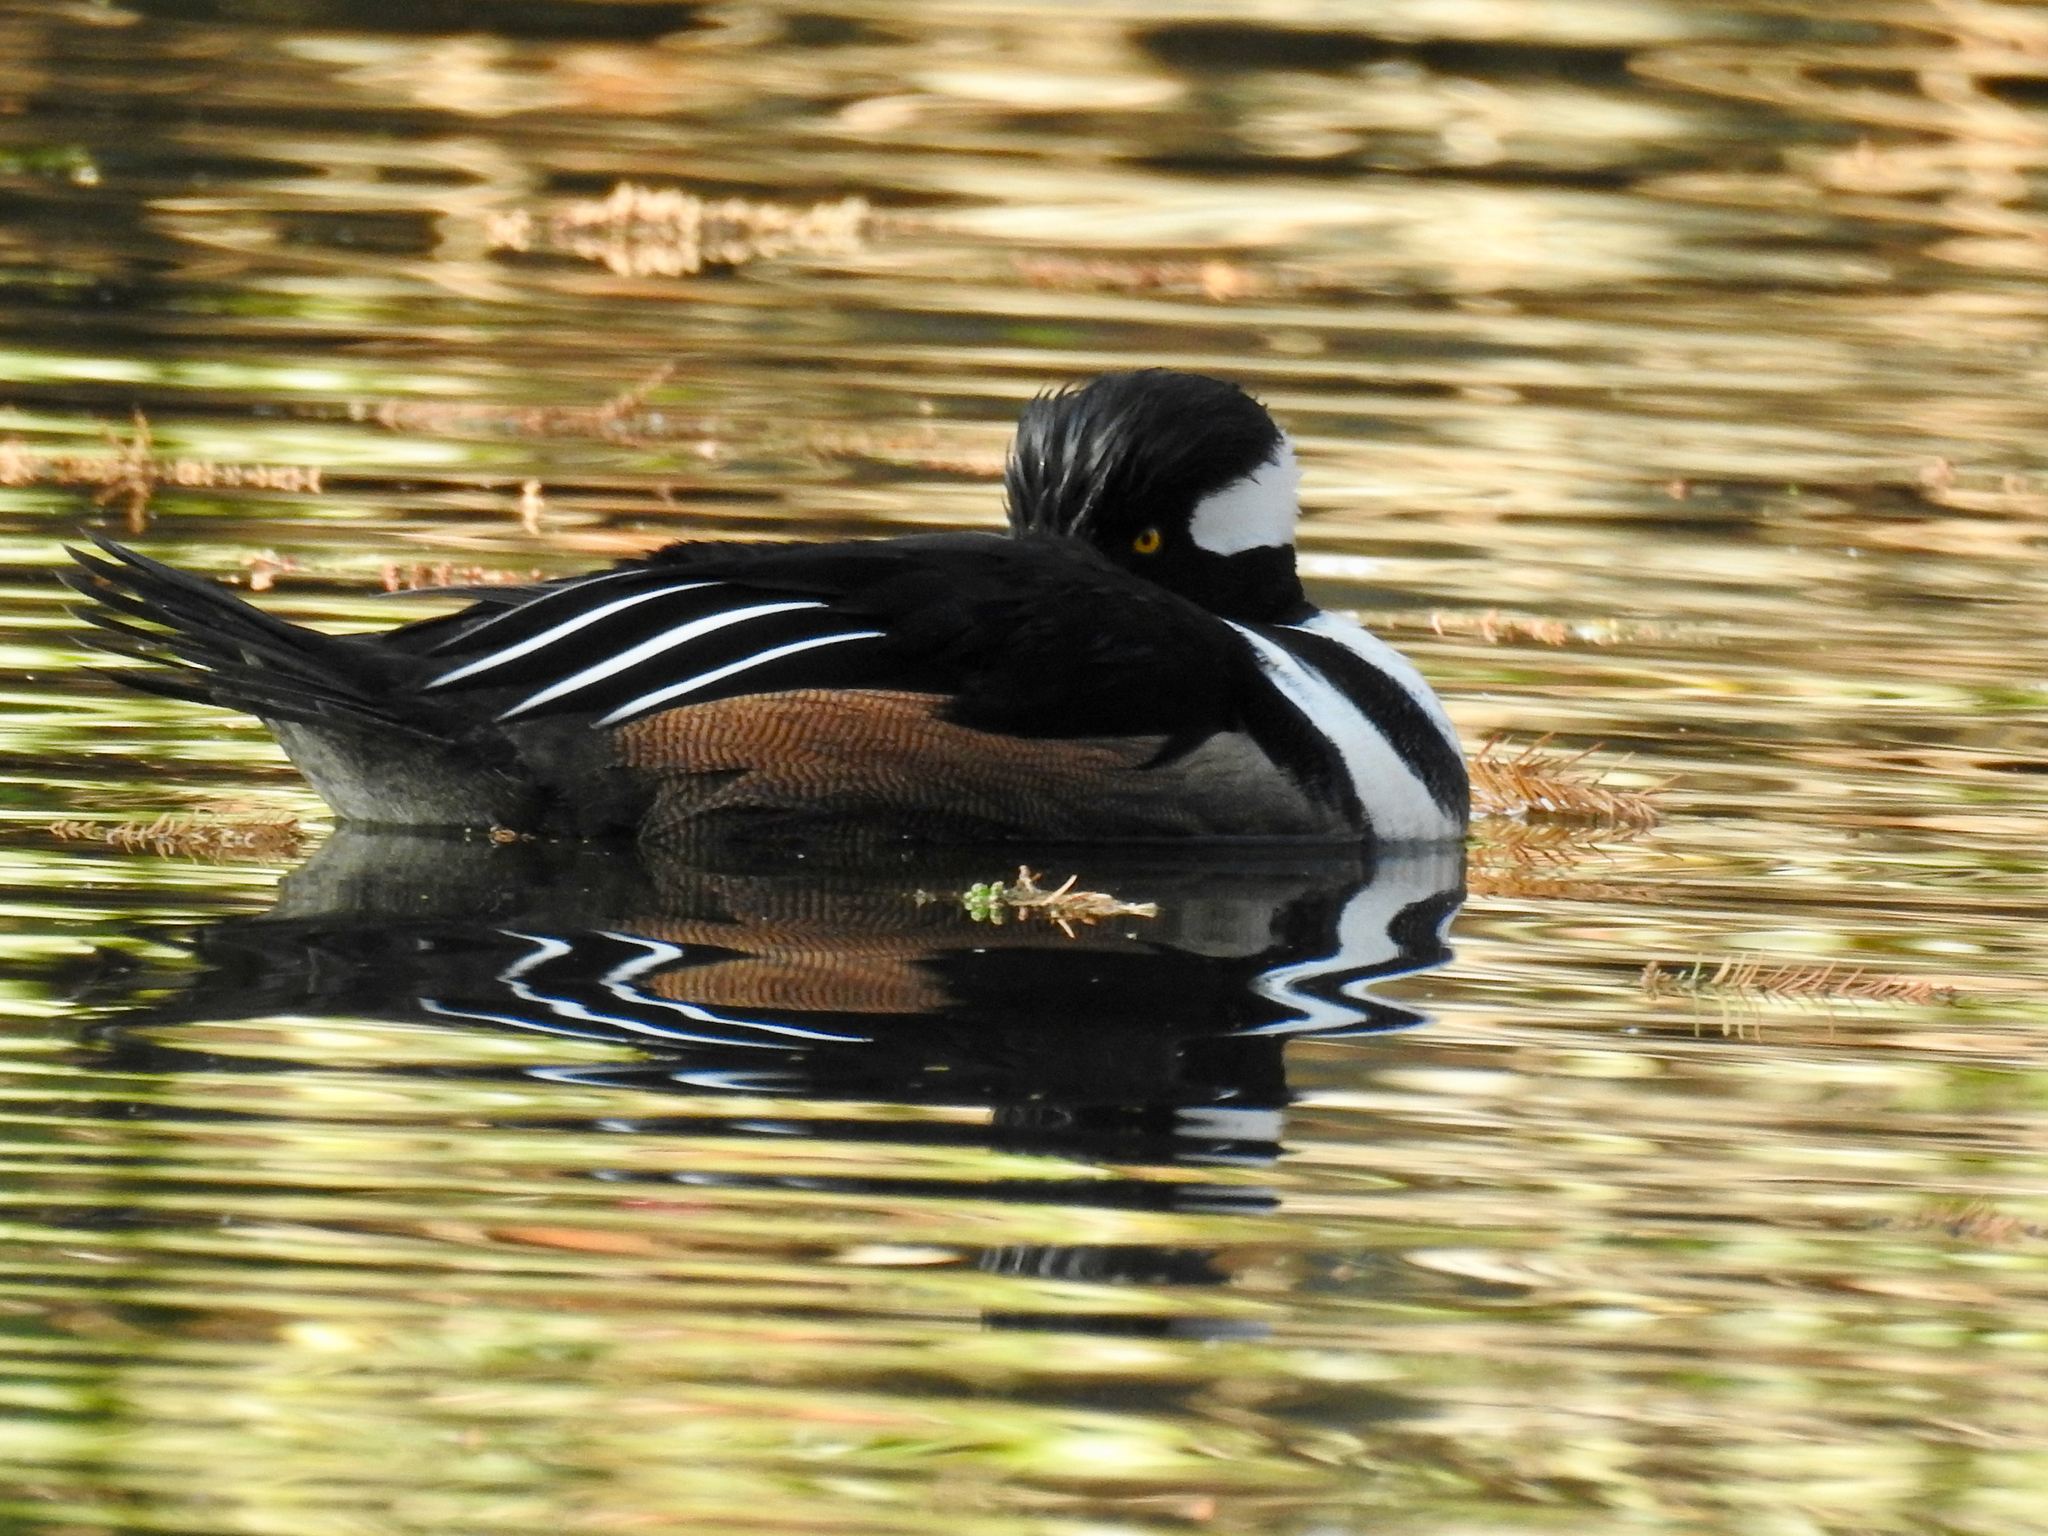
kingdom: Animalia
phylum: Chordata
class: Aves
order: Anseriformes
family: Anatidae
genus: Lophodytes
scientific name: Lophodytes cucullatus
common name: Hooded merganser
